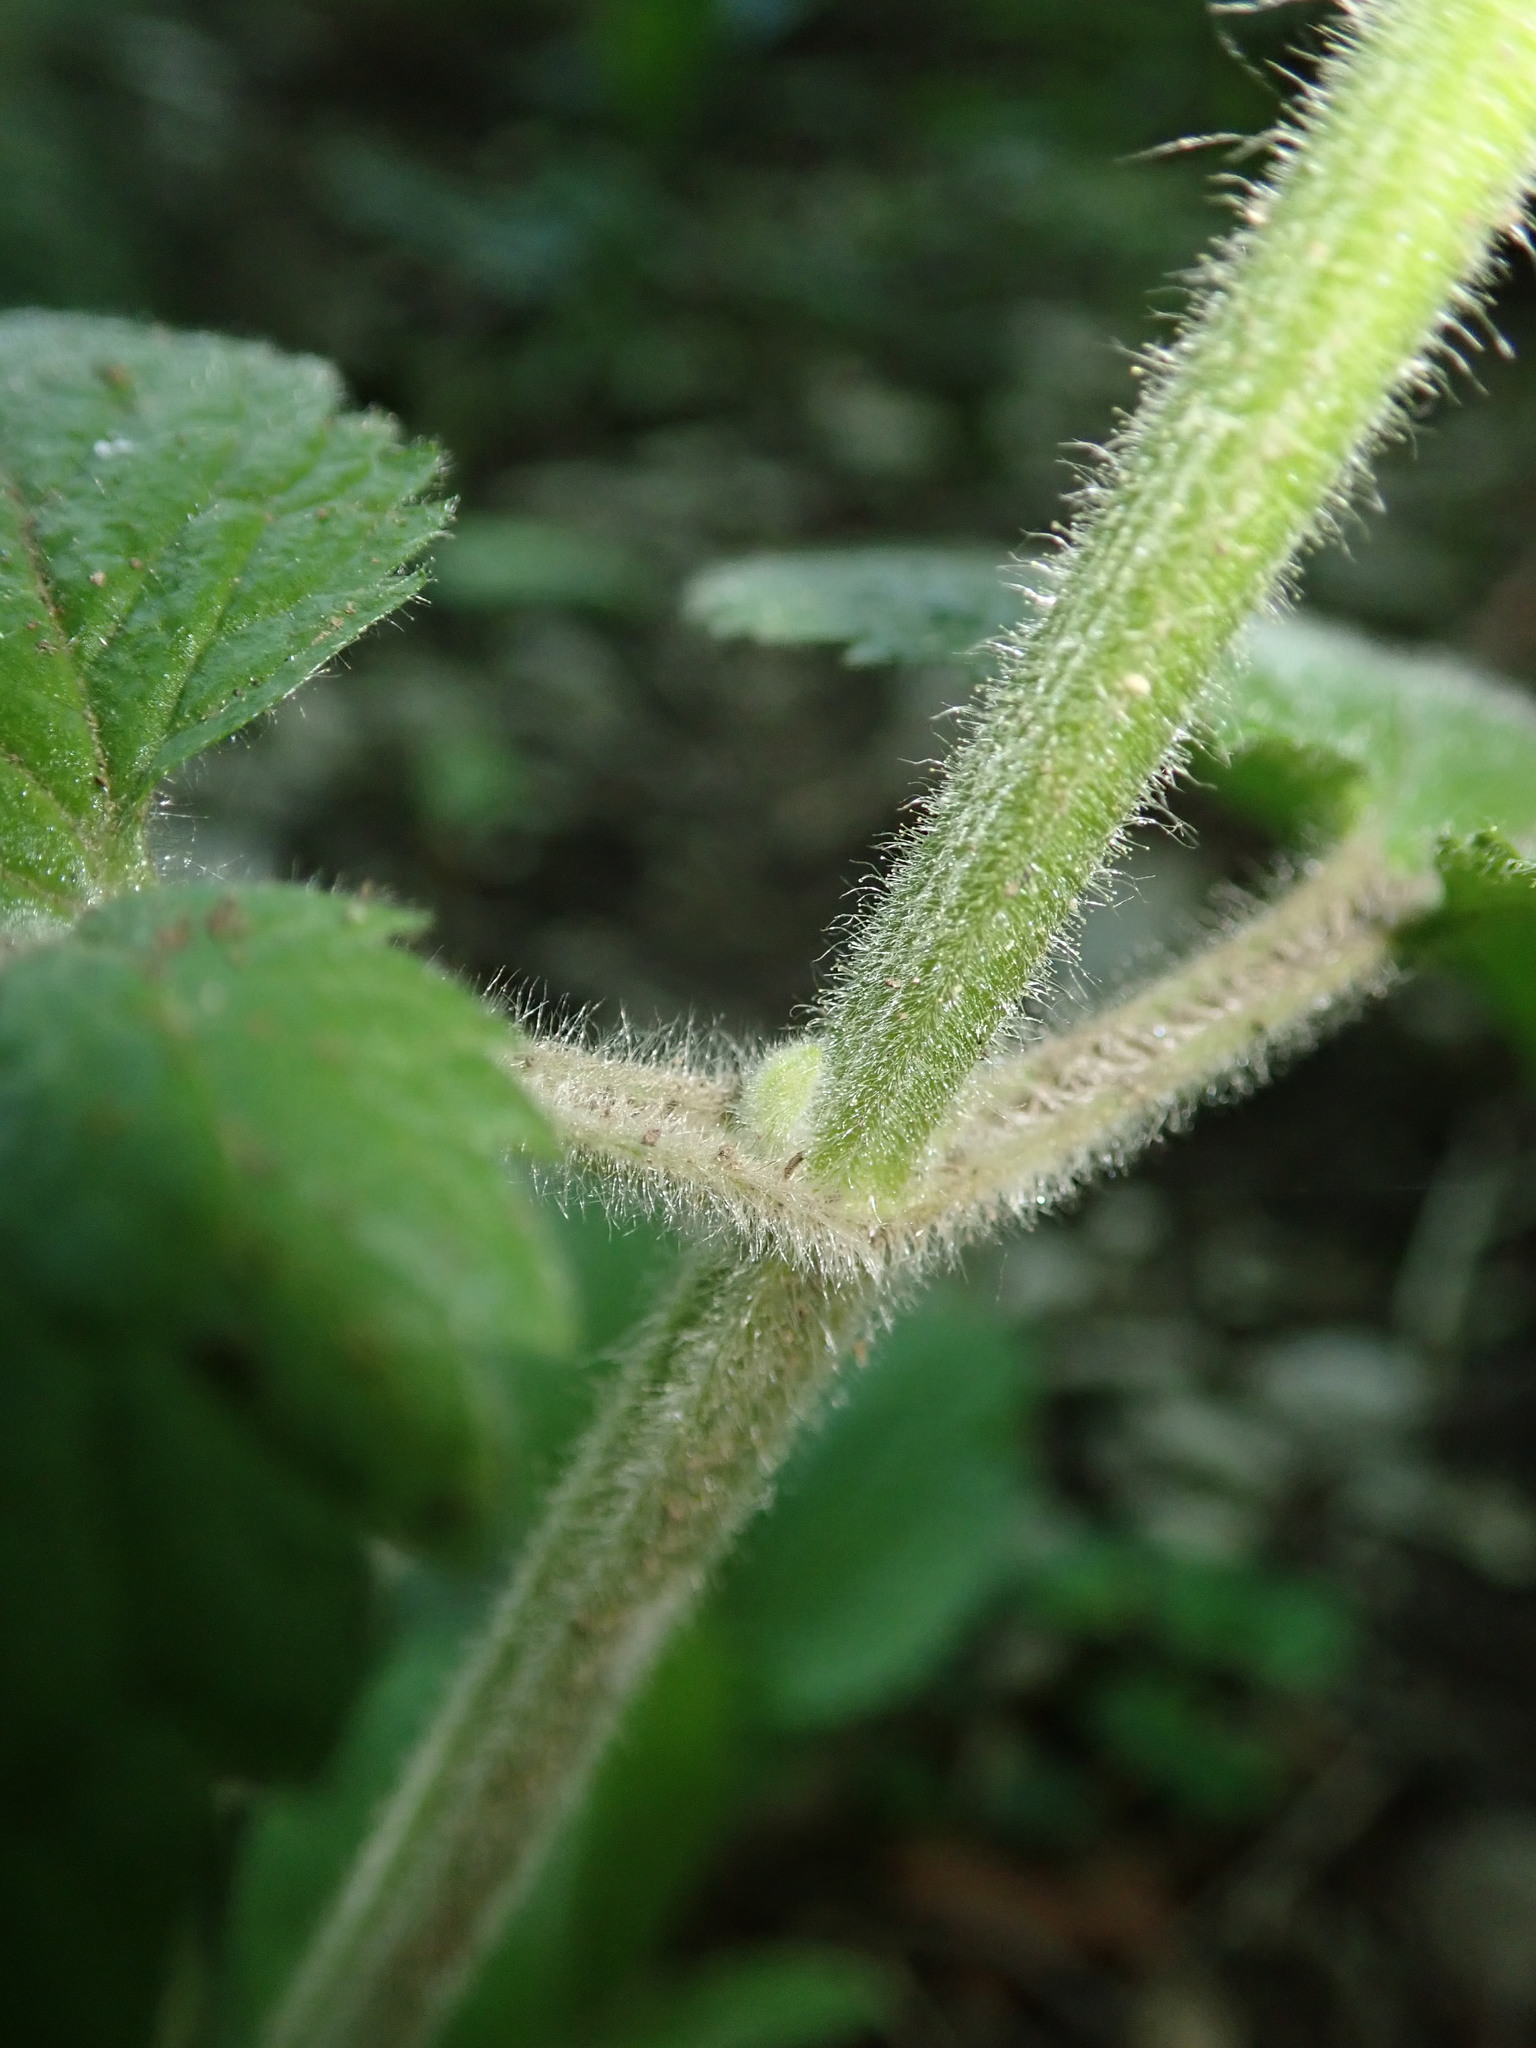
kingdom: Plantae
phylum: Tracheophyta
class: Magnoliopsida
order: Lamiales
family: Lamiaceae
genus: Stachys
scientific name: Stachys alpina
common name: Limestone woundwort
